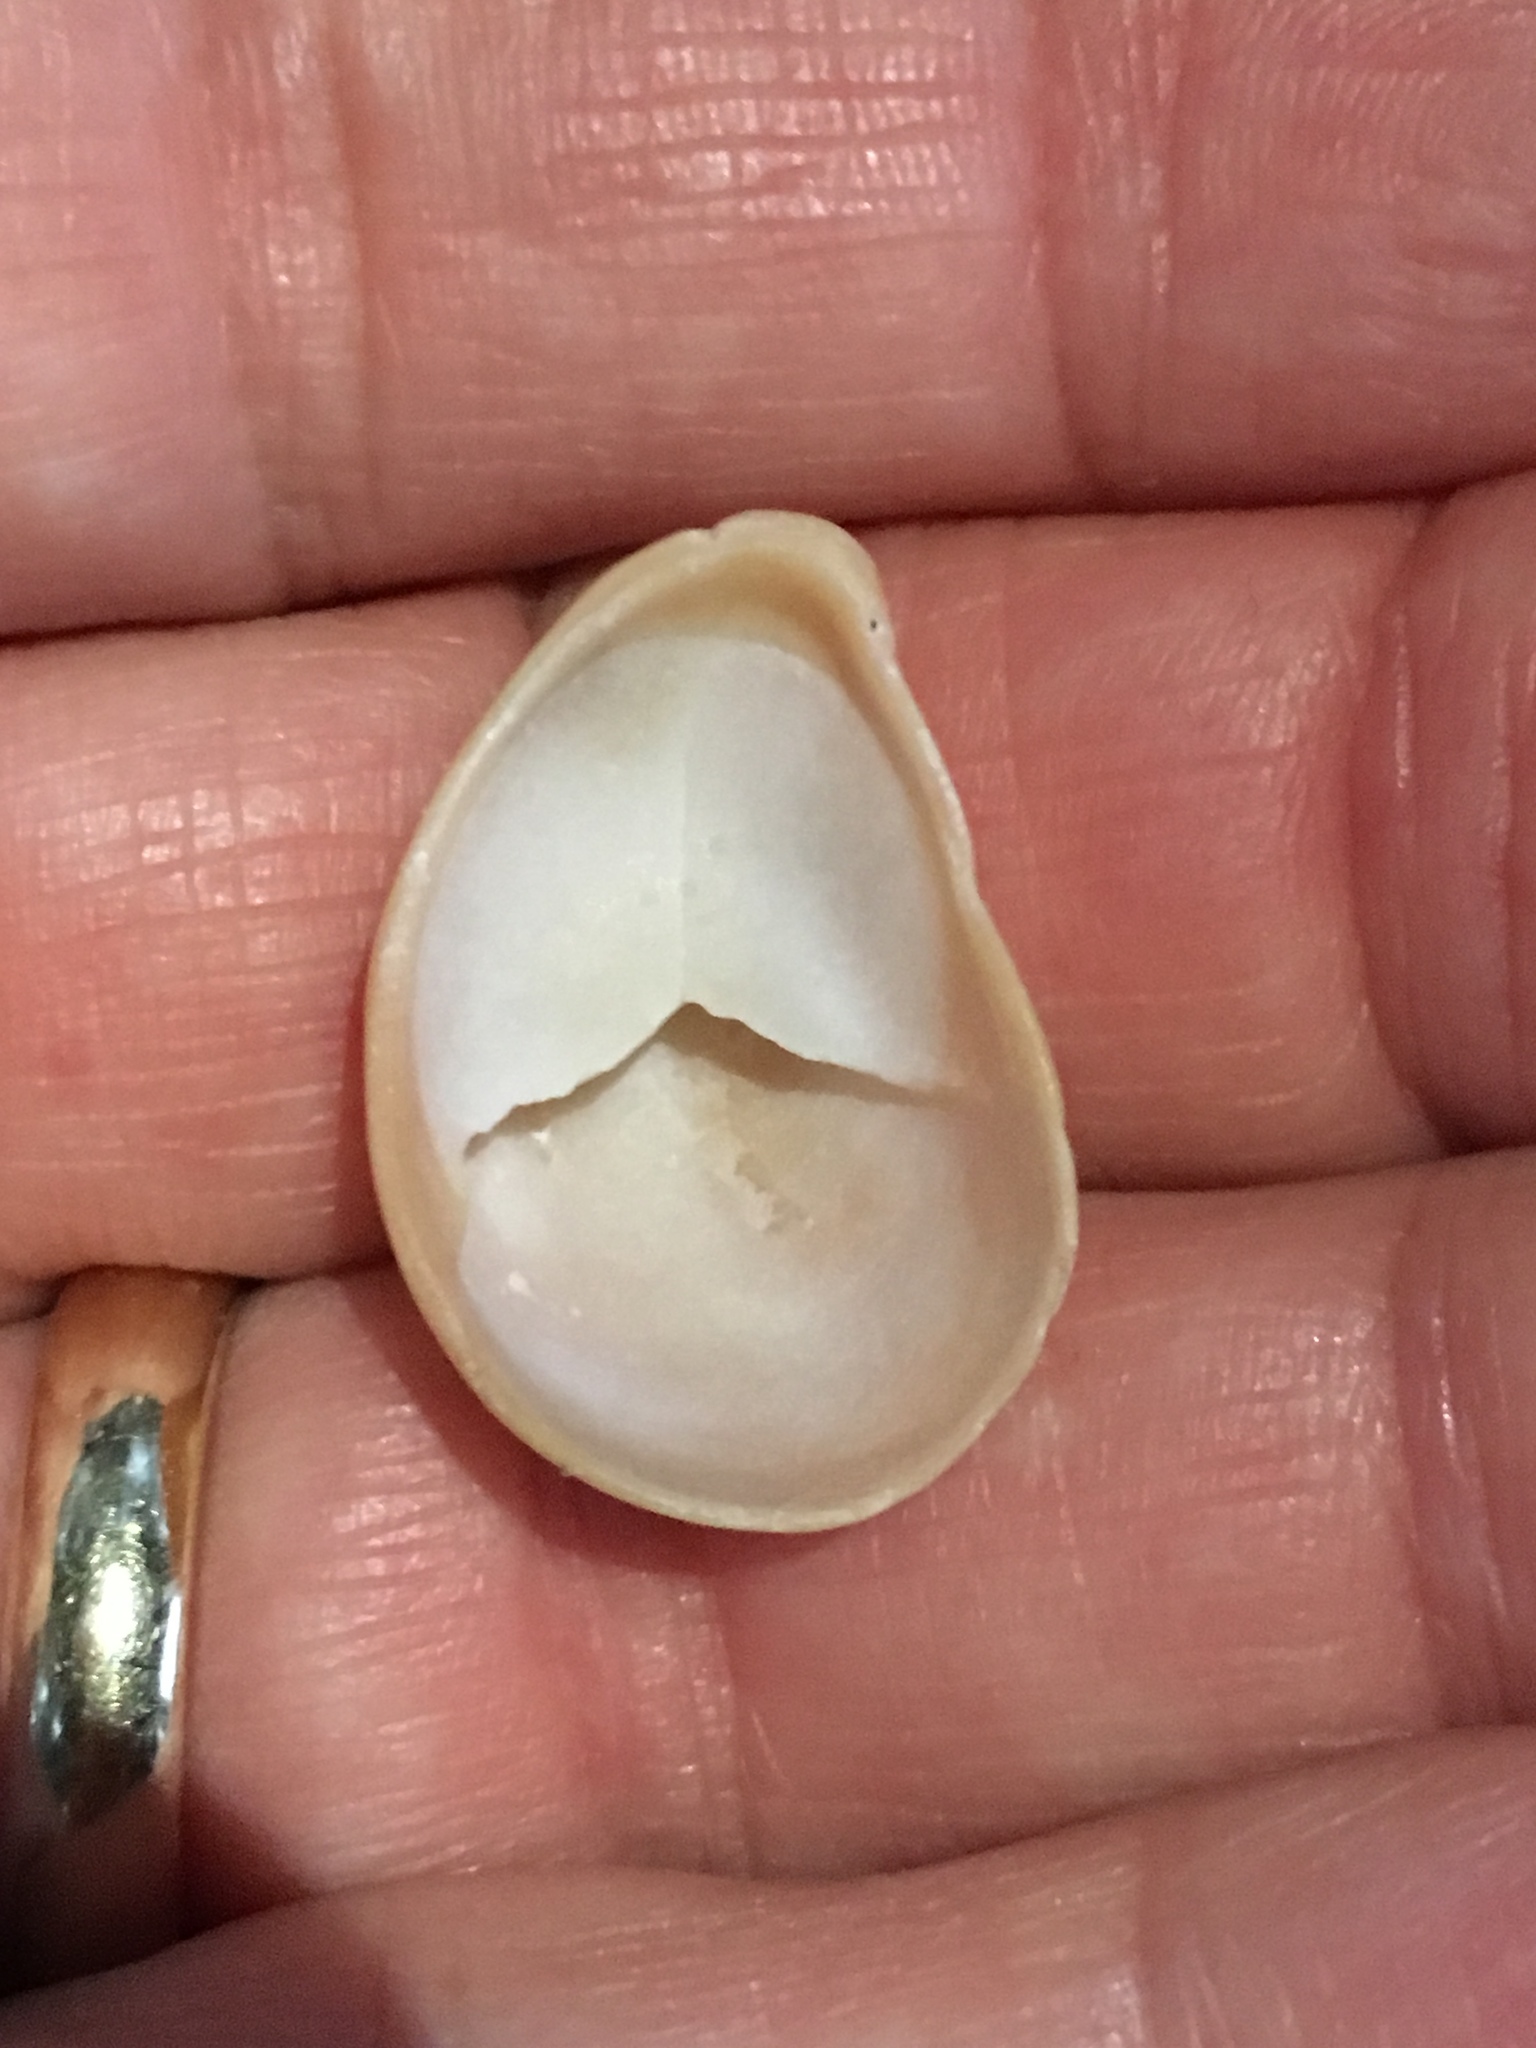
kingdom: Animalia
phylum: Mollusca
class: Gastropoda
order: Littorinimorpha
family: Calyptraeidae
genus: Crepidula
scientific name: Crepidula fornicata
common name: Slipper limpet
